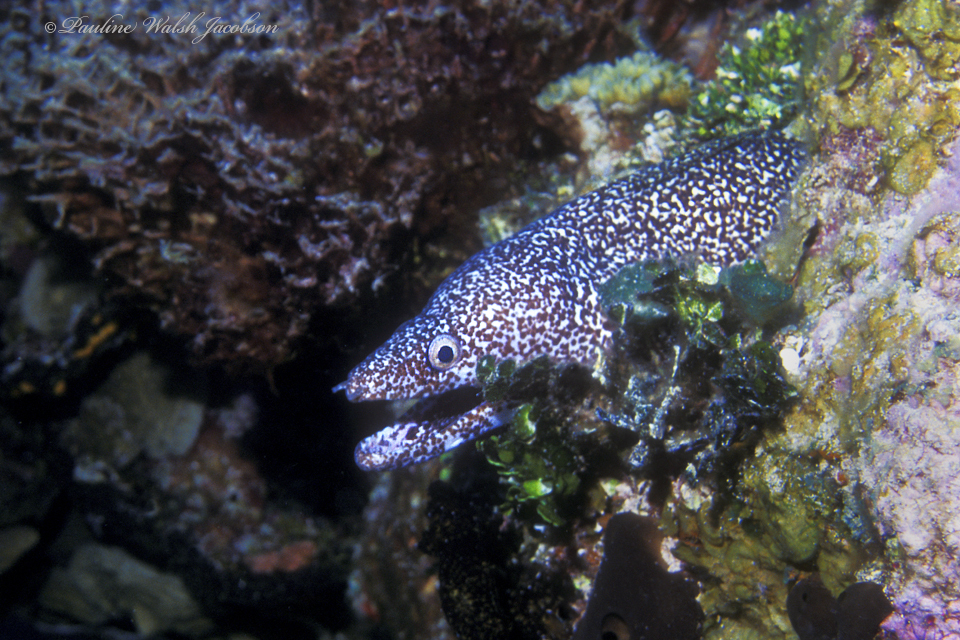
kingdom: Animalia
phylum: Chordata
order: Anguilliformes
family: Muraenidae
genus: Gymnothorax
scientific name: Gymnothorax moringa
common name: Spotted moray
